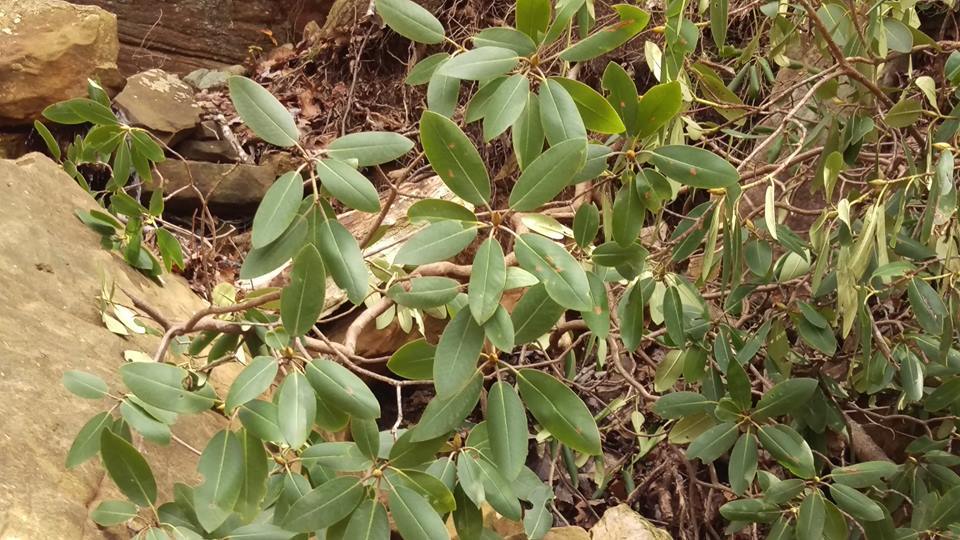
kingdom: Plantae
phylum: Tracheophyta
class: Magnoliopsida
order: Ericales
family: Ericaceae
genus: Rhododendron
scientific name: Rhododendron maximum
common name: Great rhododendron
